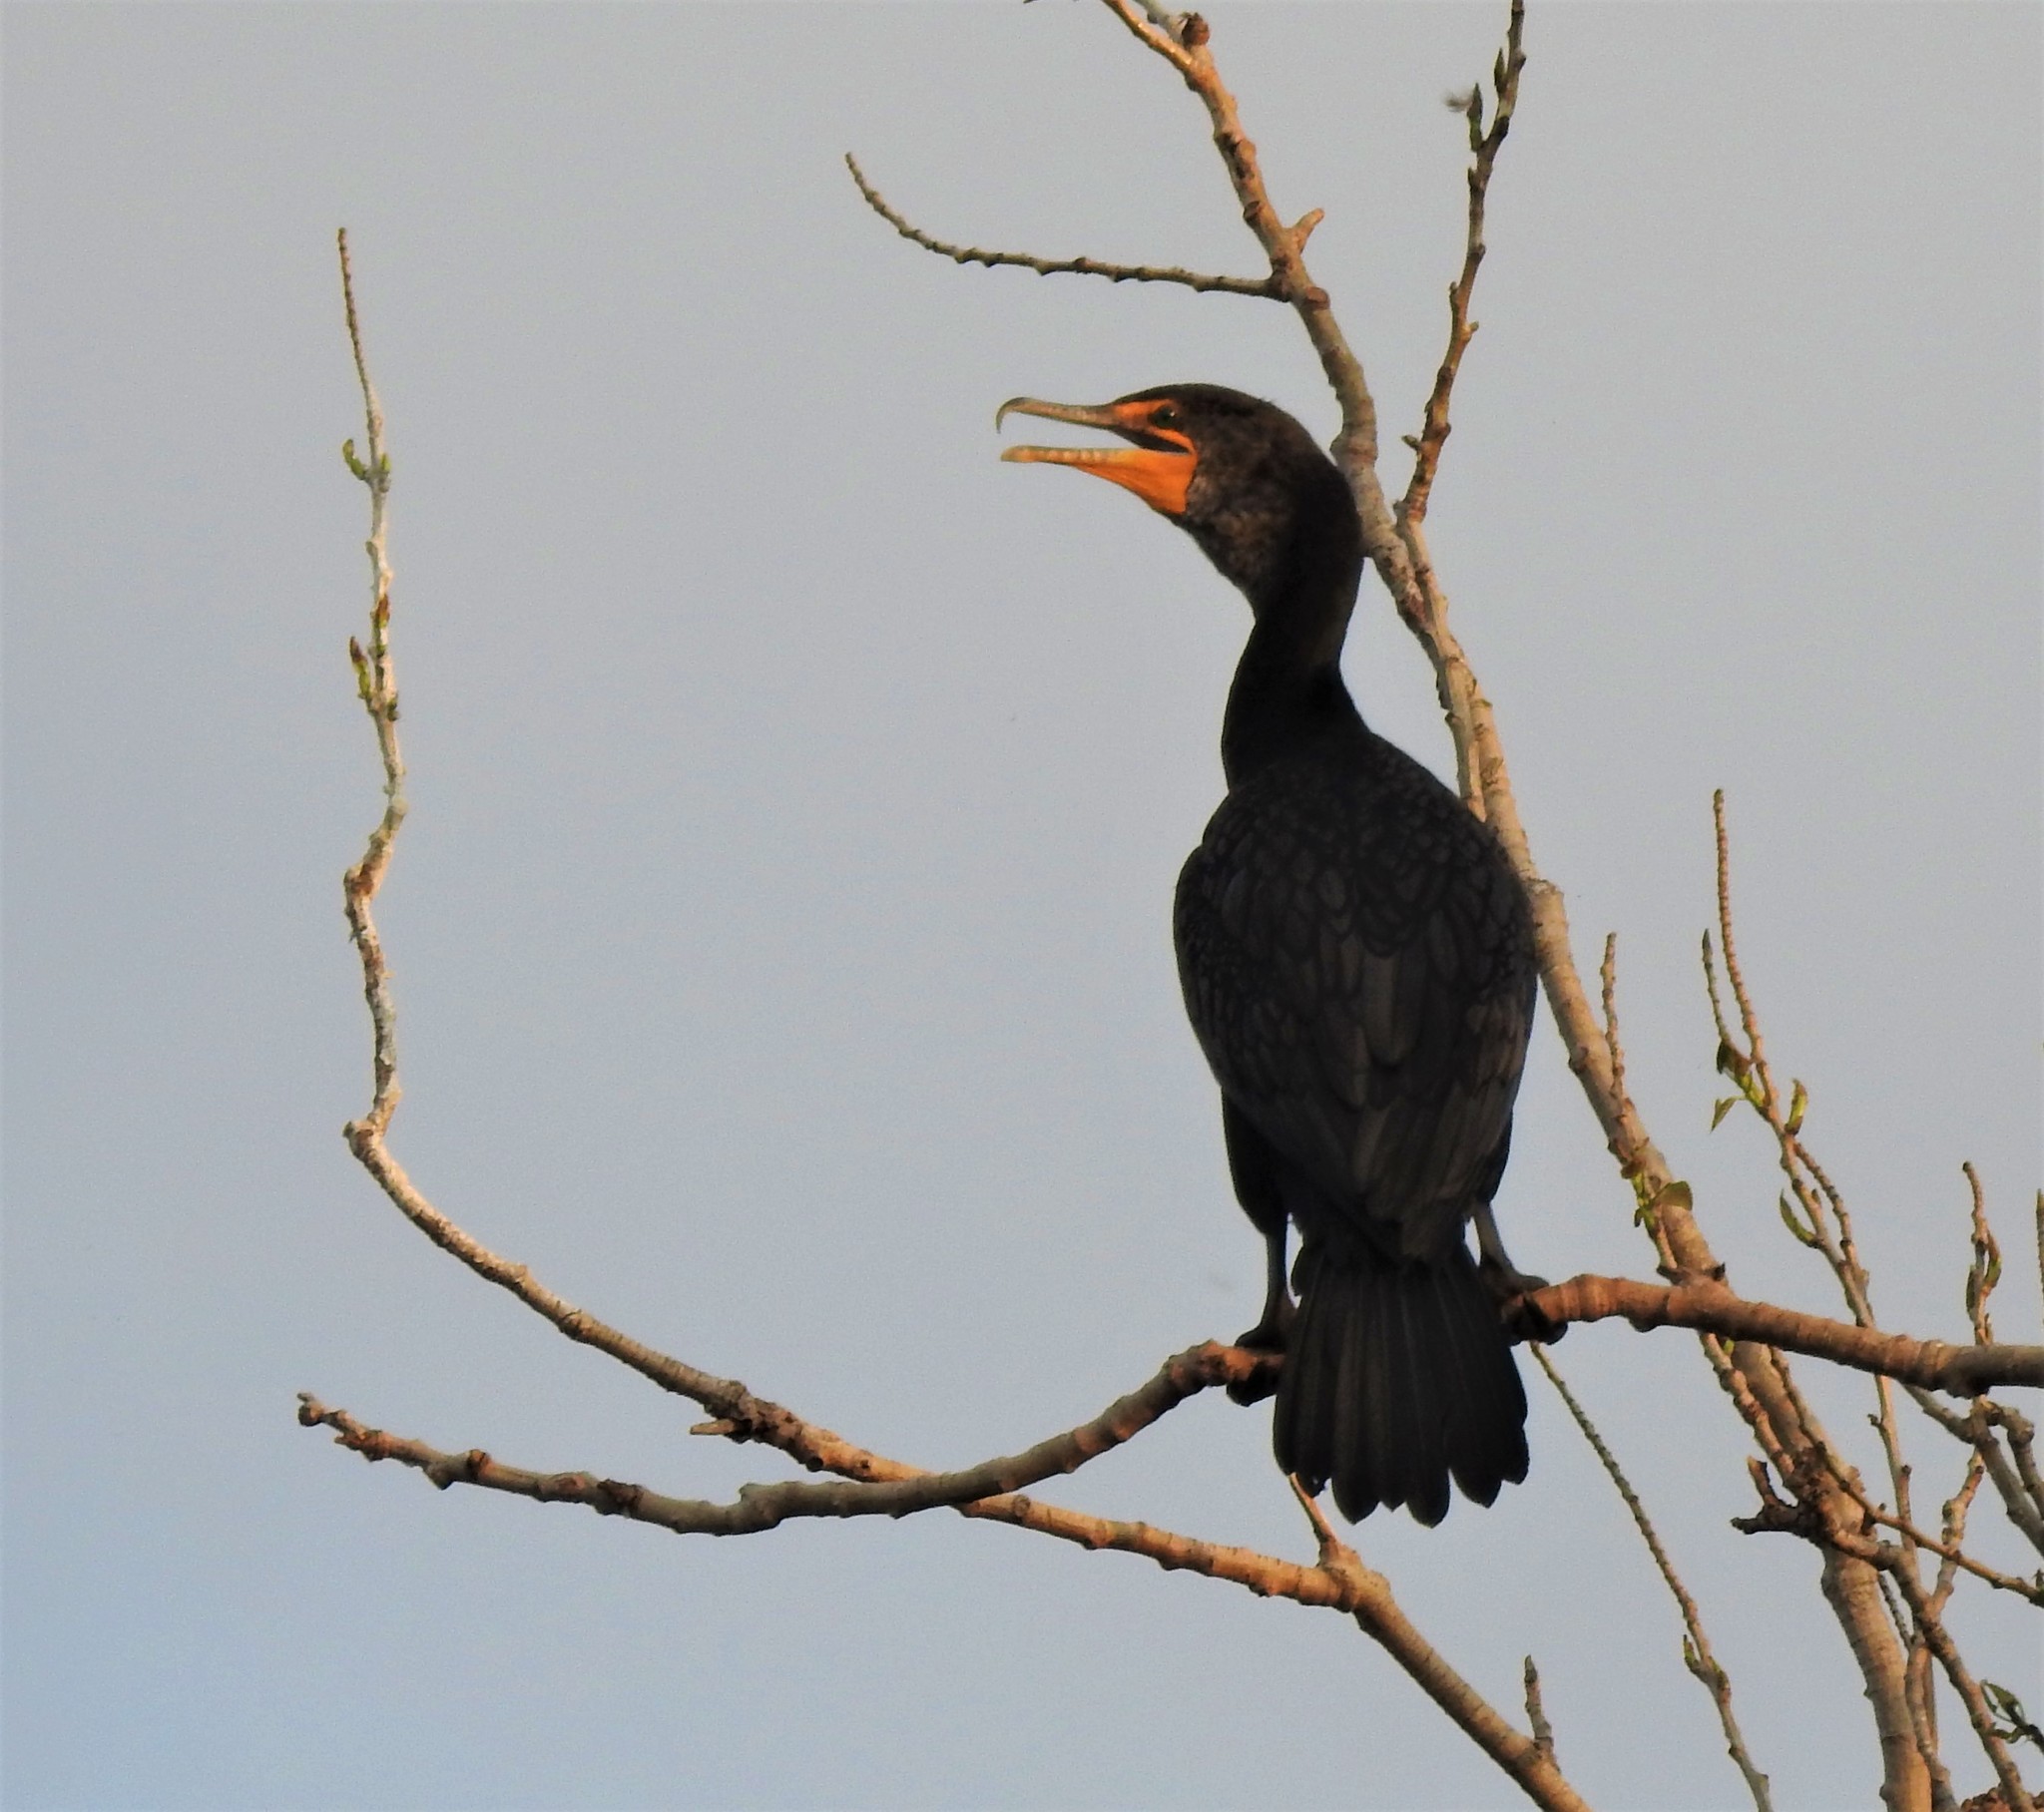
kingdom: Animalia
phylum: Chordata
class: Aves
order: Suliformes
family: Phalacrocoracidae
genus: Phalacrocorax
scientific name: Phalacrocorax auritus
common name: Double-crested cormorant
